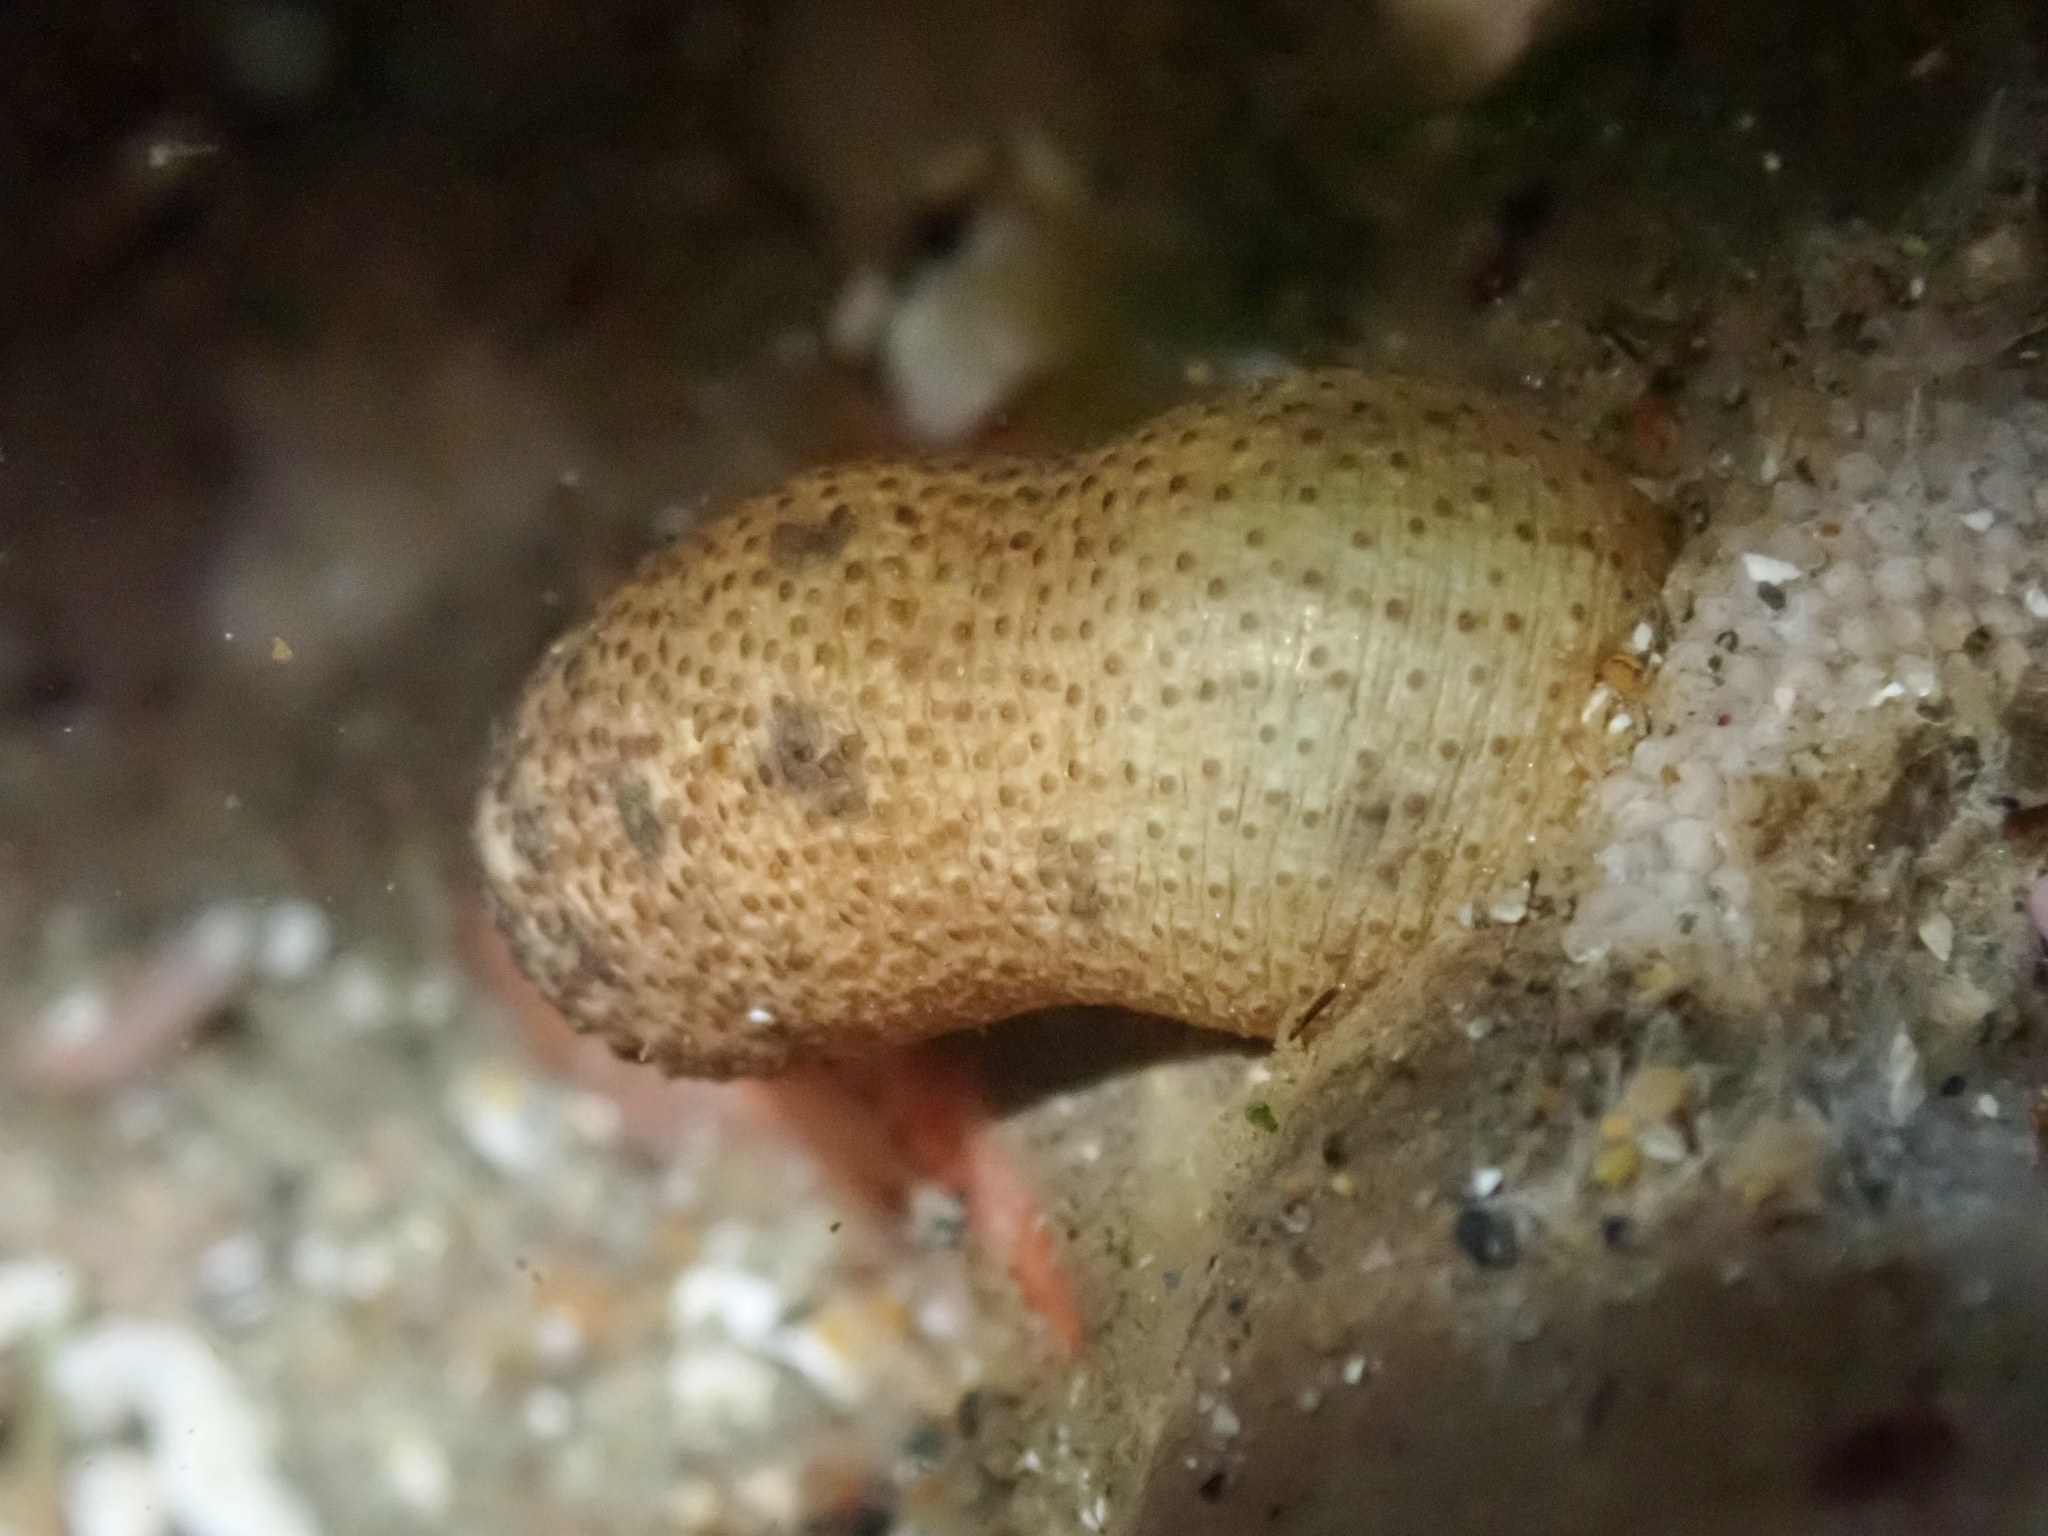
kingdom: Animalia
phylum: Sipuncula
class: Phascolosomatidea
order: Phascolosomatiformes
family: Phascolosomatidae
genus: Phascolosoma
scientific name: Phascolosoma agassizii
